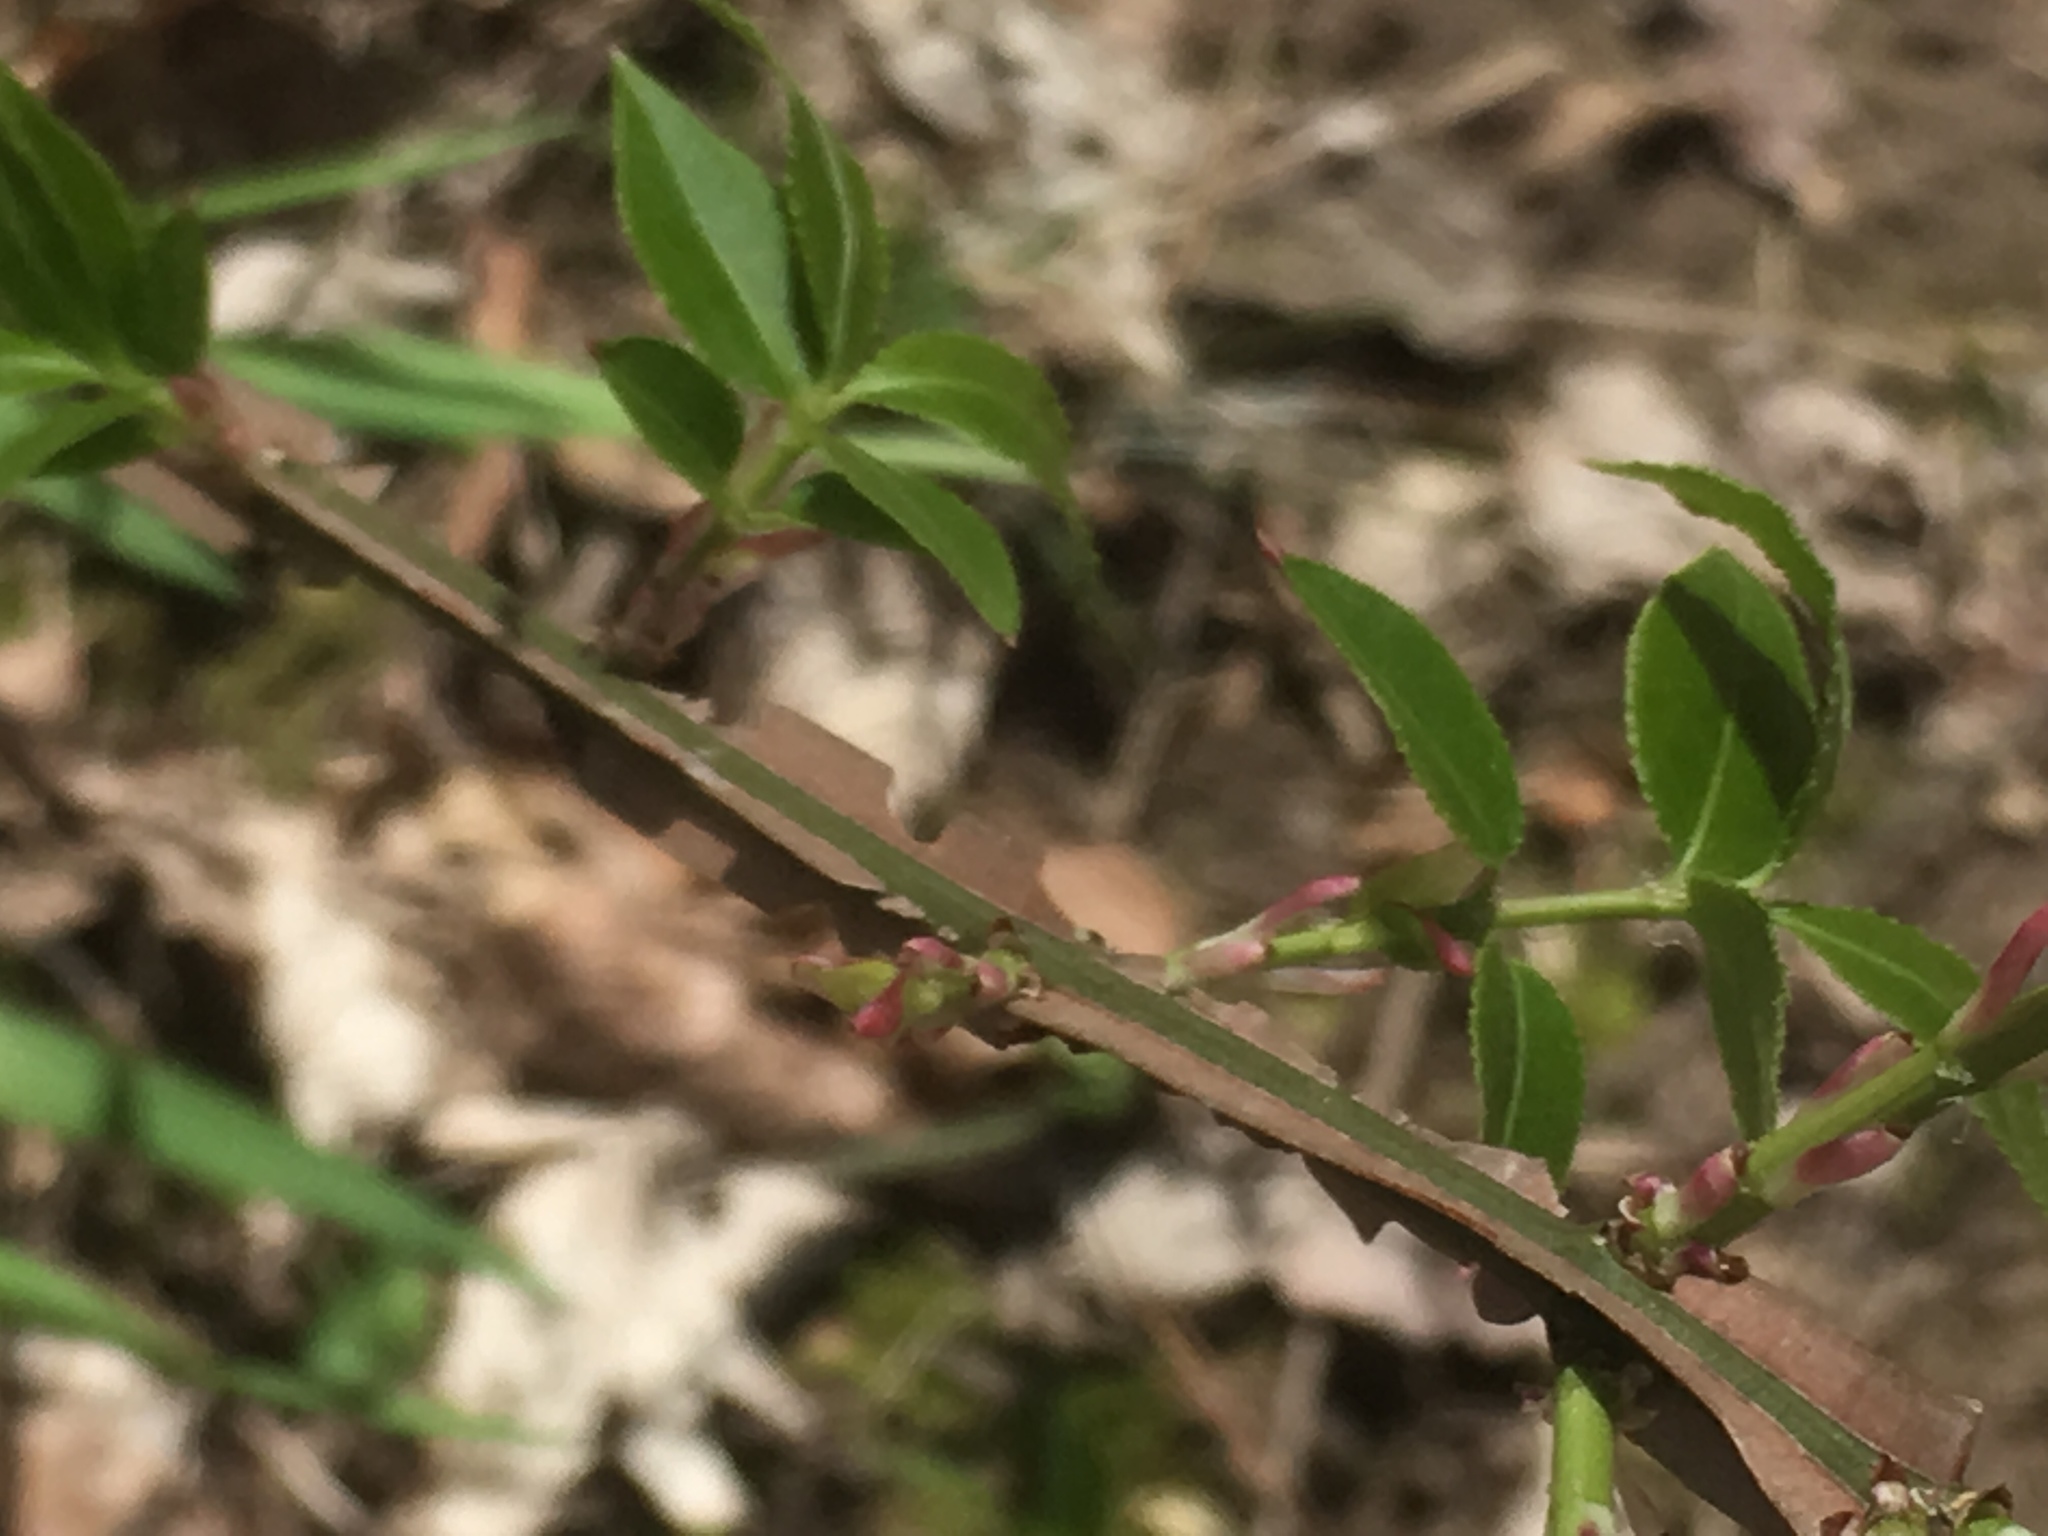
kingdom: Plantae
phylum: Tracheophyta
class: Magnoliopsida
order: Celastrales
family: Celastraceae
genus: Euonymus
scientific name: Euonymus alatus
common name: Winged euonymus
